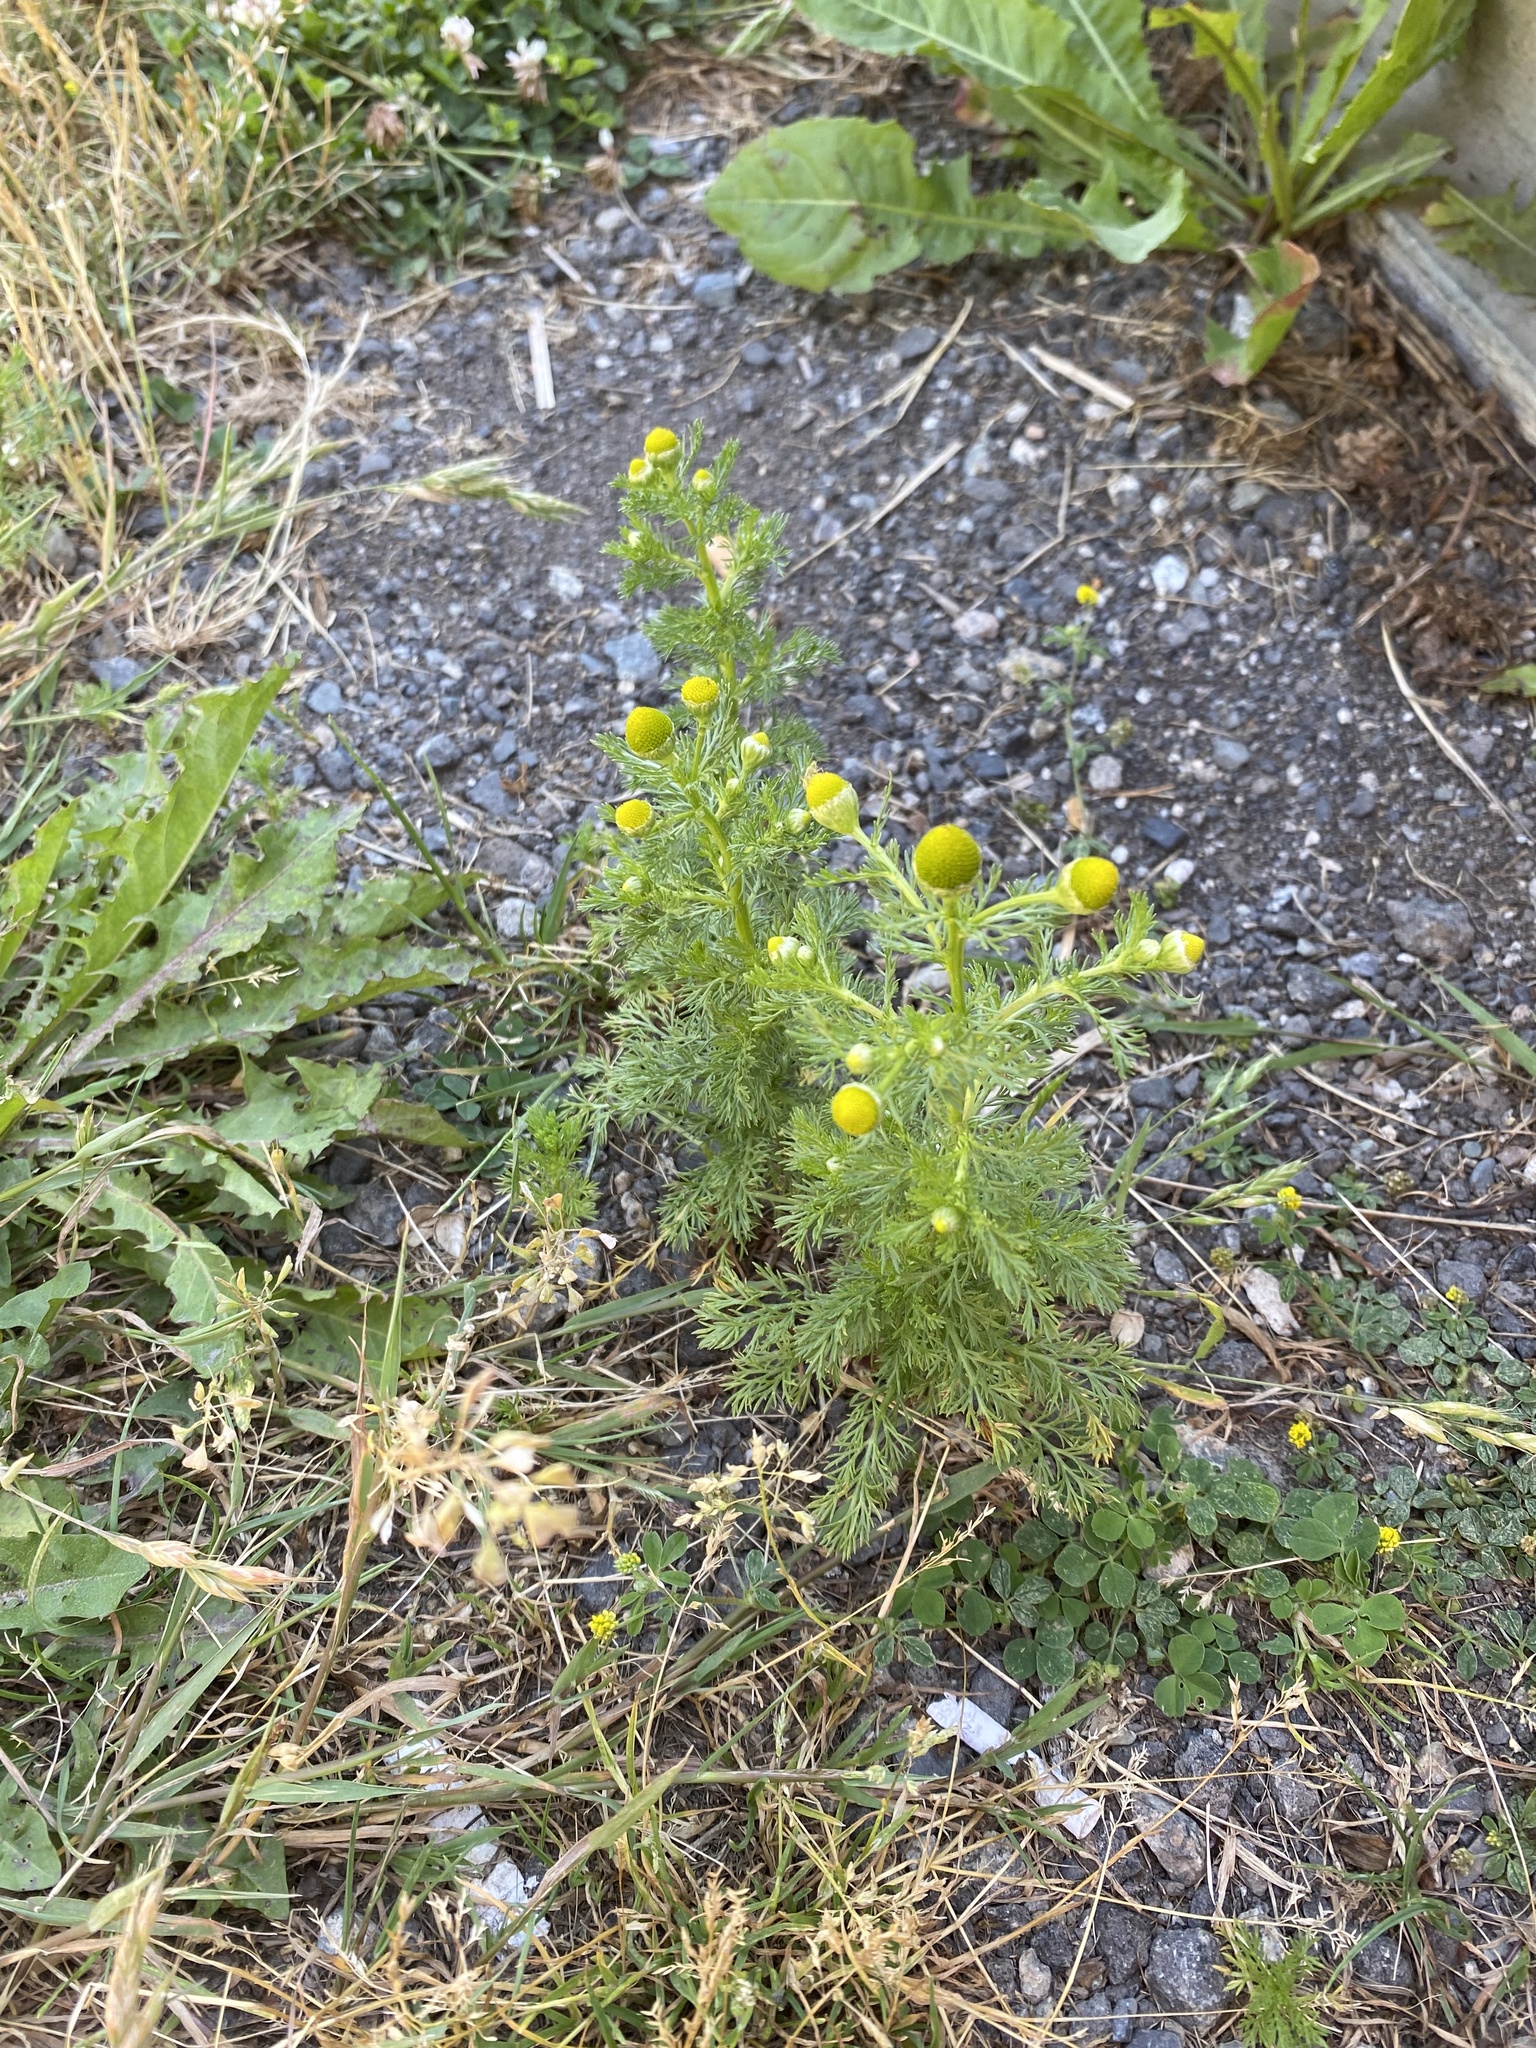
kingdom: Plantae
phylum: Tracheophyta
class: Magnoliopsida
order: Asterales
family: Asteraceae
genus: Matricaria
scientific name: Matricaria discoidea
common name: Disc mayweed
